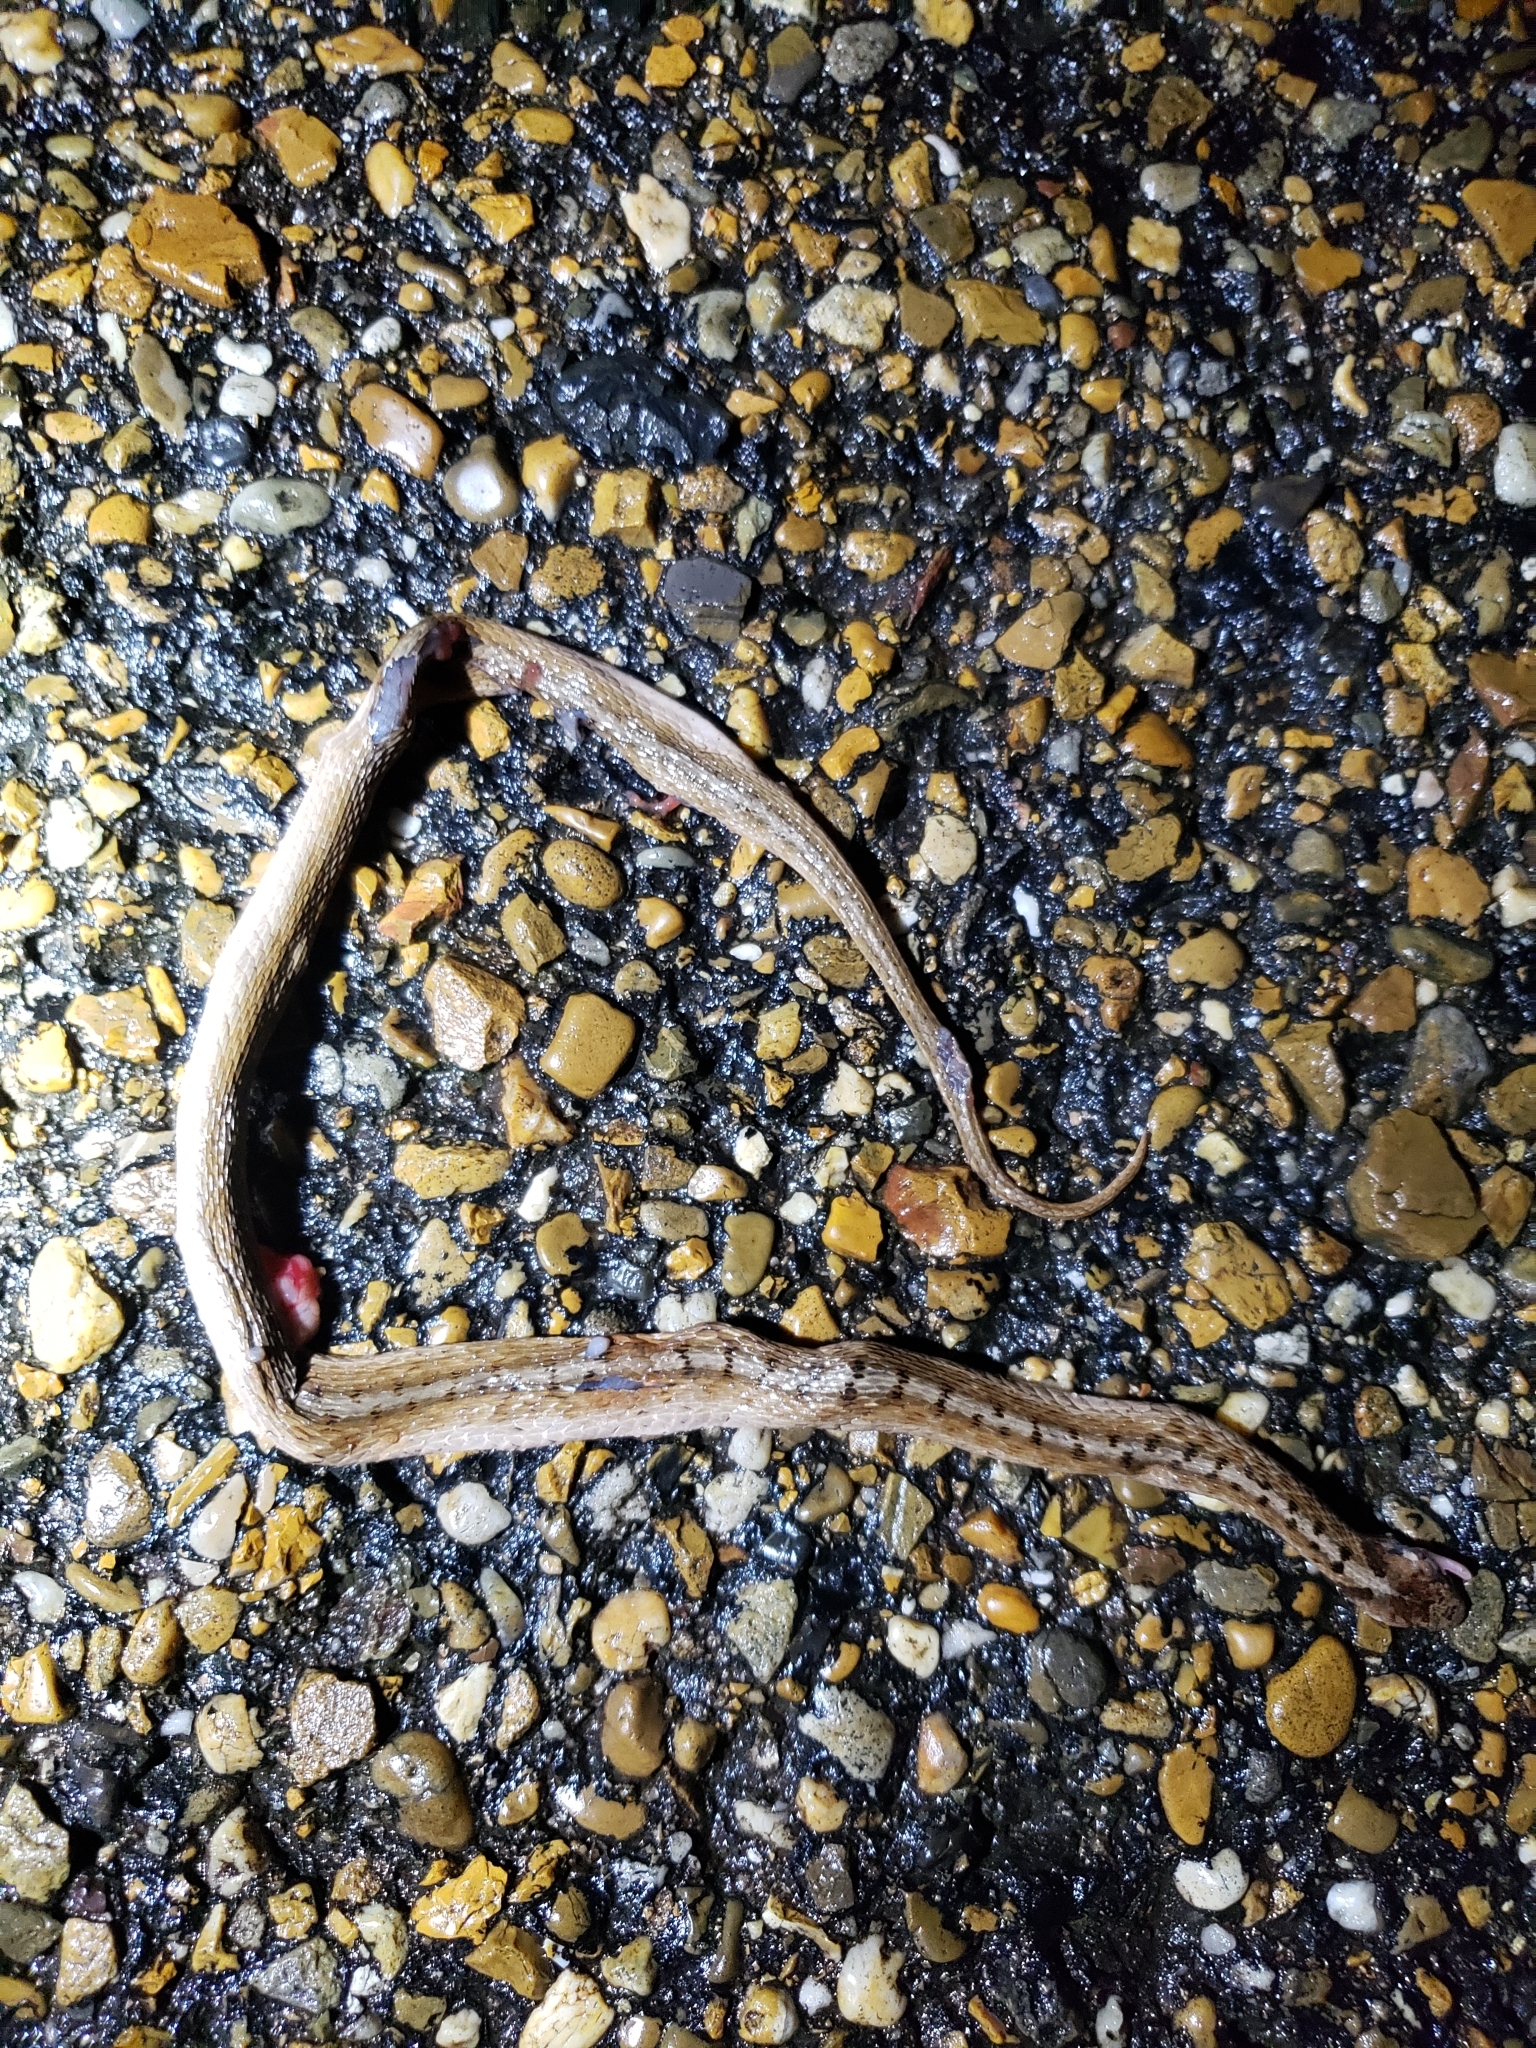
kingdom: Animalia
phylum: Chordata
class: Squamata
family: Colubridae
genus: Storeria
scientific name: Storeria dekayi
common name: (dekay’s) brown snake
